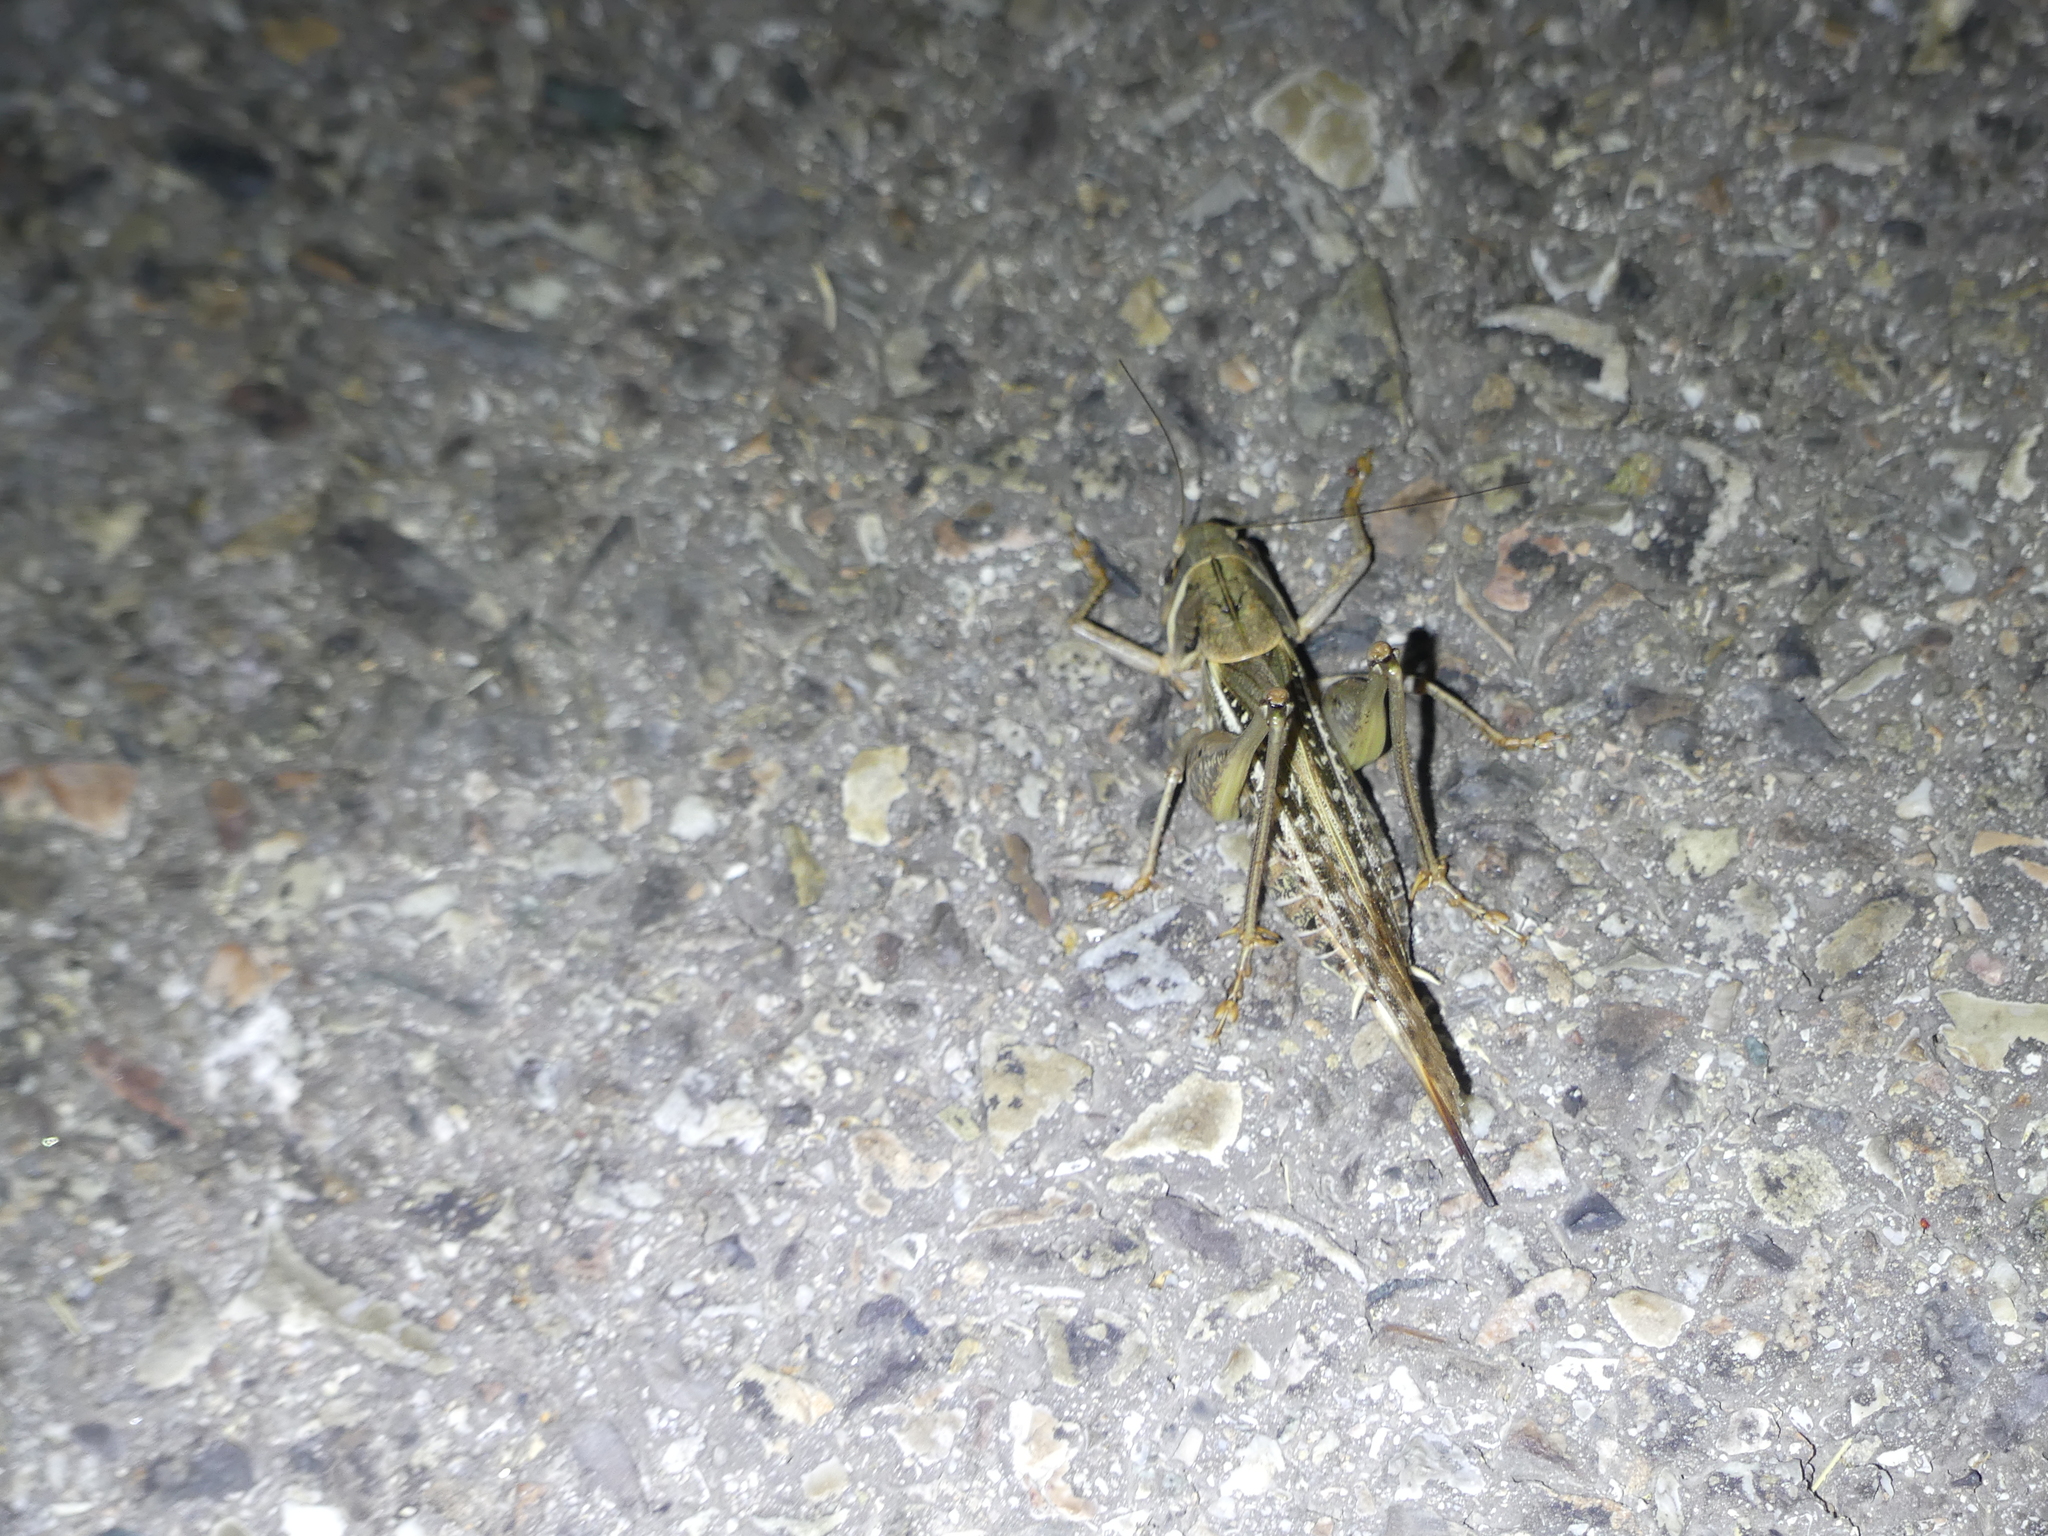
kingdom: Animalia
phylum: Arthropoda
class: Insecta
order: Orthoptera
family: Tettigoniidae
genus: Decticus
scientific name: Decticus albifrons
